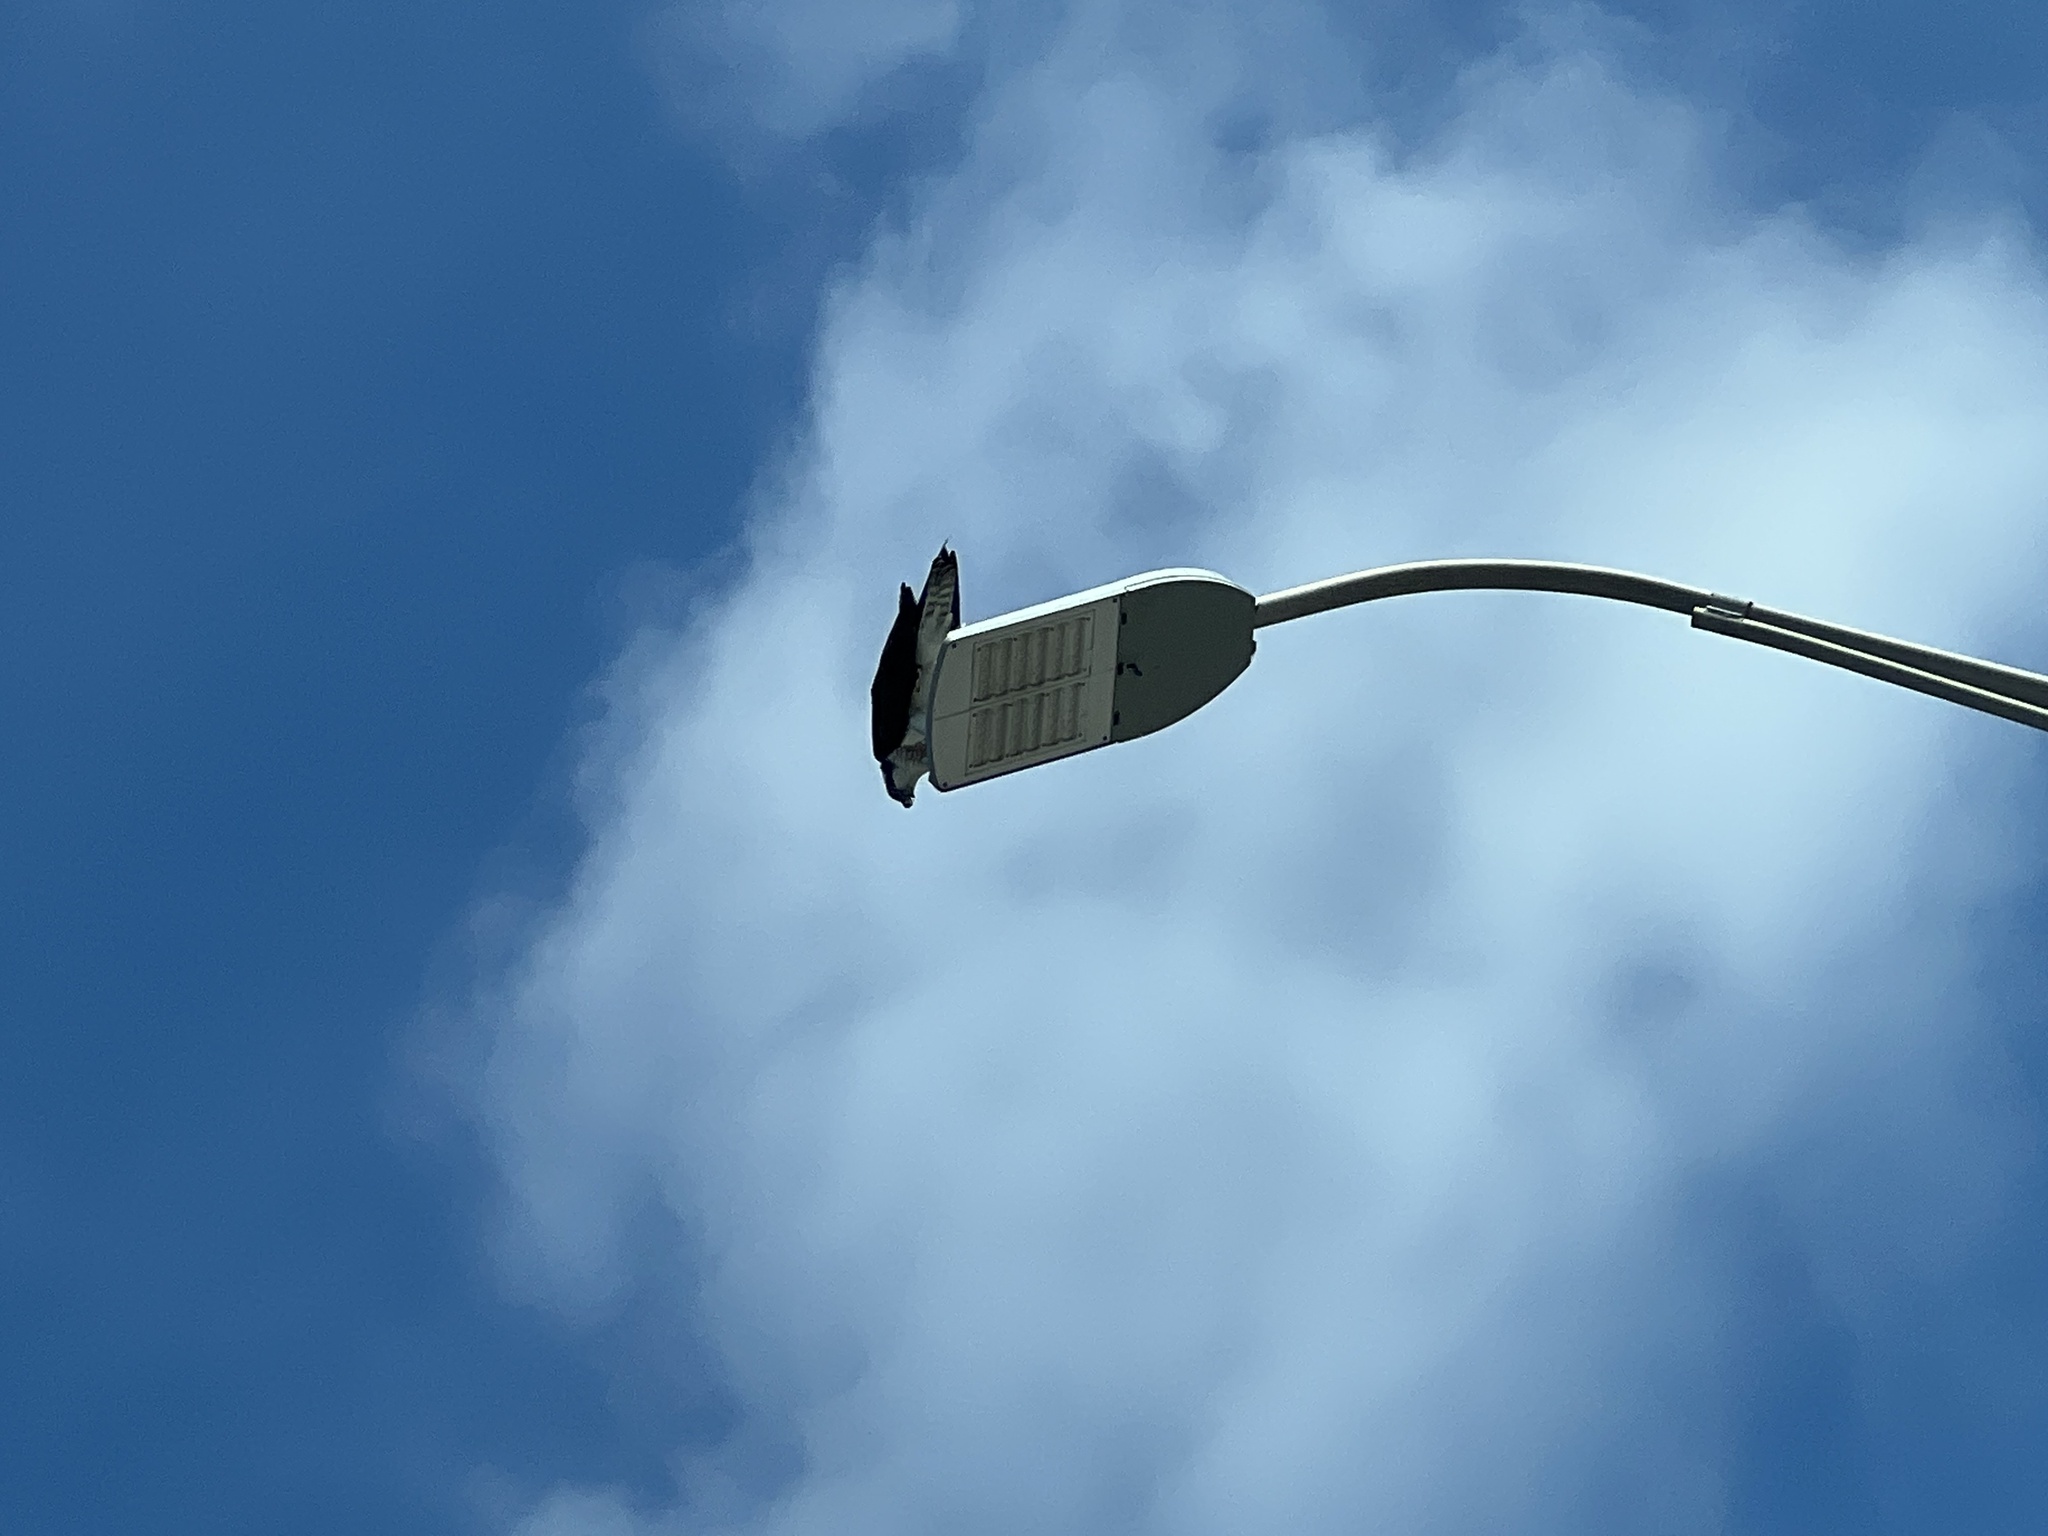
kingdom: Animalia
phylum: Chordata
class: Aves
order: Accipitriformes
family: Pandionidae
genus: Pandion
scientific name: Pandion haliaetus
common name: Osprey
